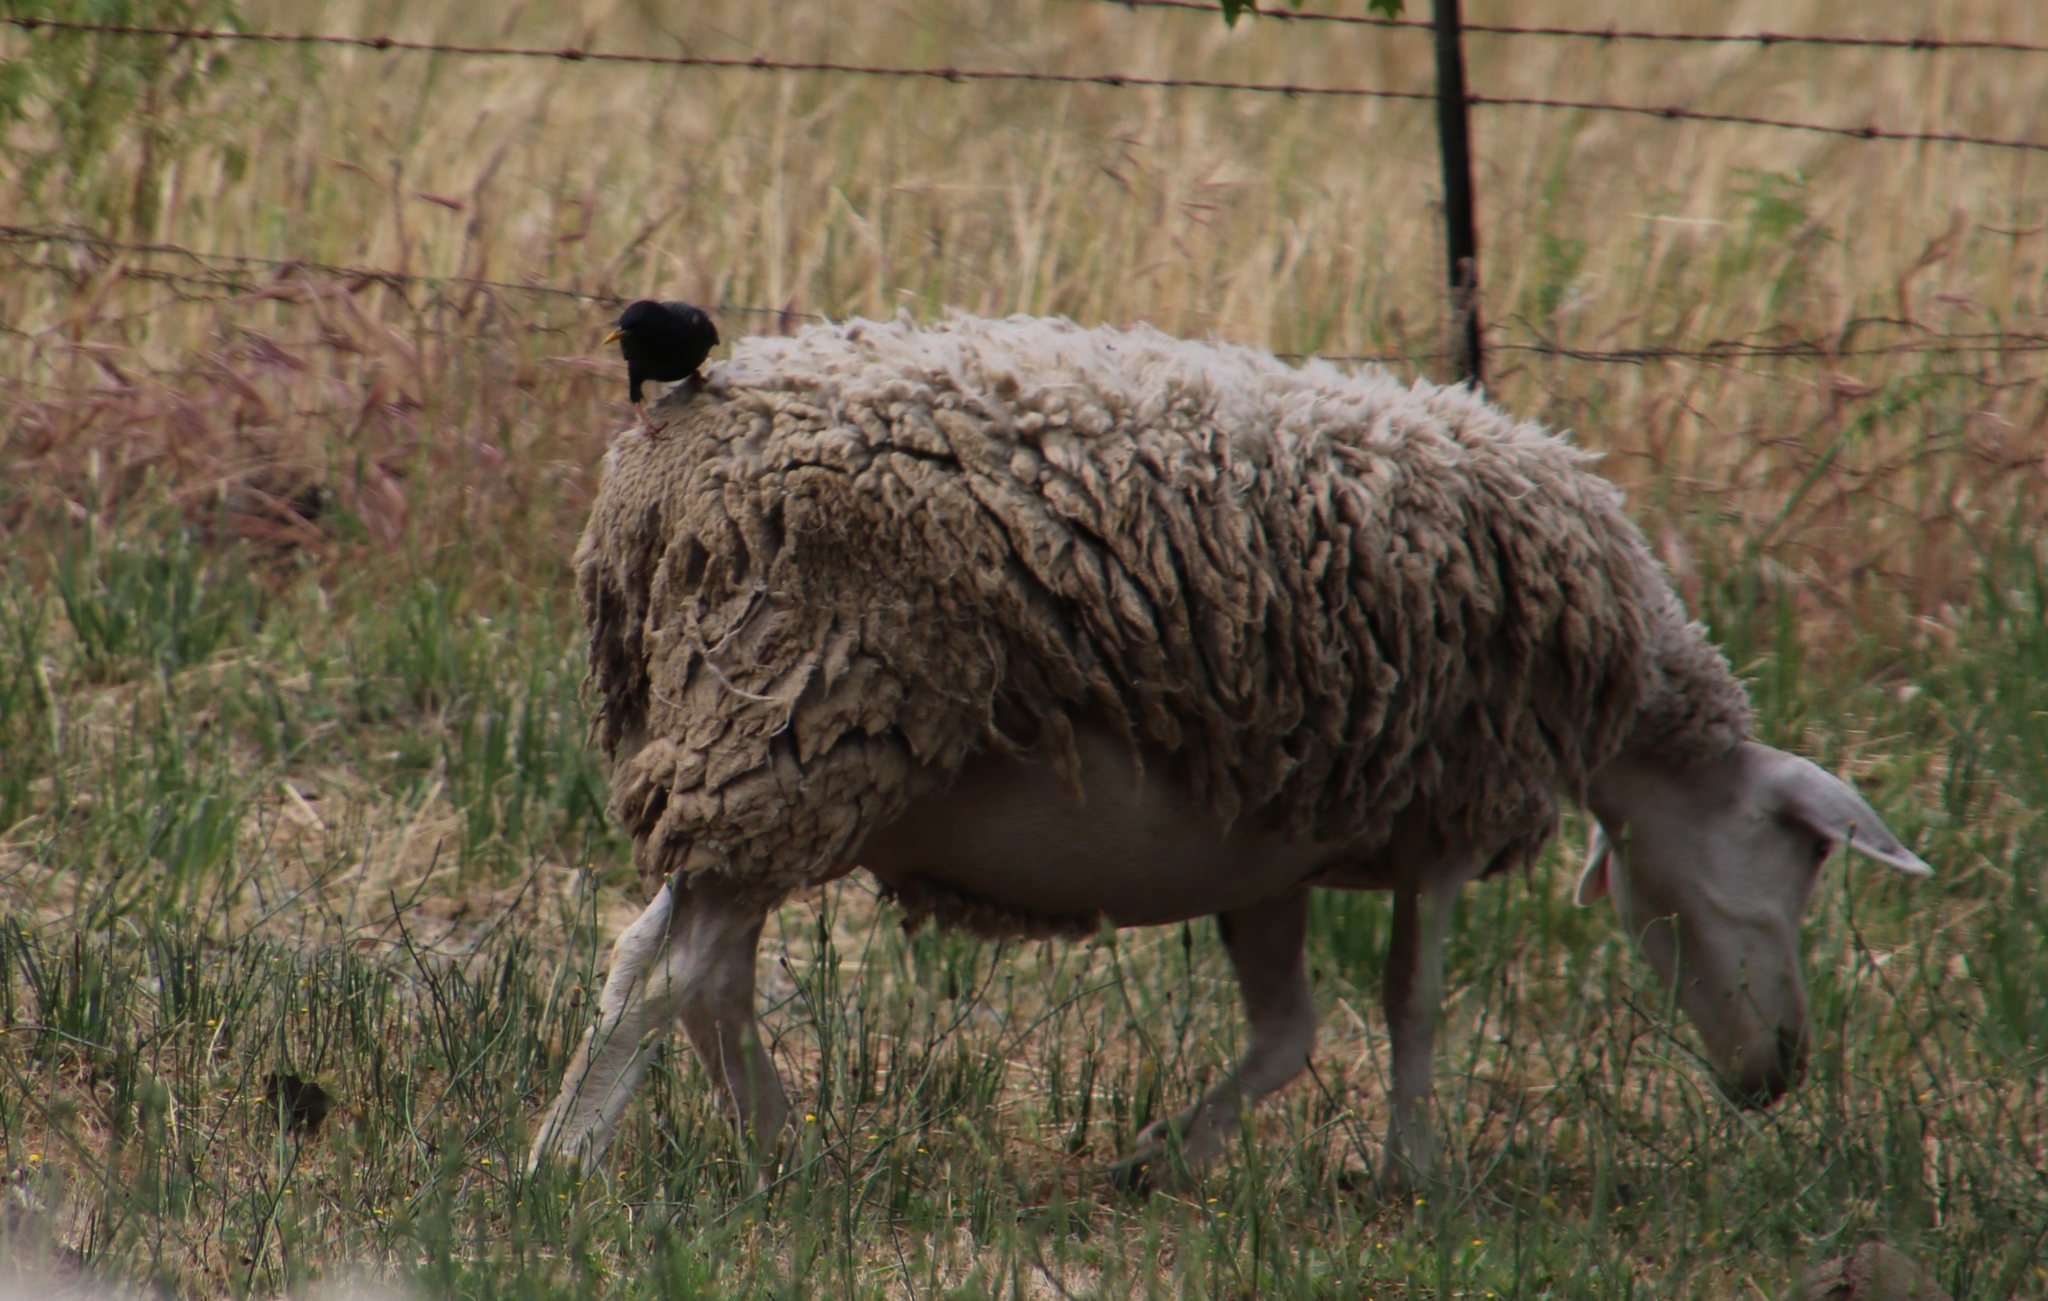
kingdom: Animalia
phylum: Chordata
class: Aves
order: Passeriformes
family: Sturnidae
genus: Sturnus
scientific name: Sturnus vulgaris
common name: Common starling
